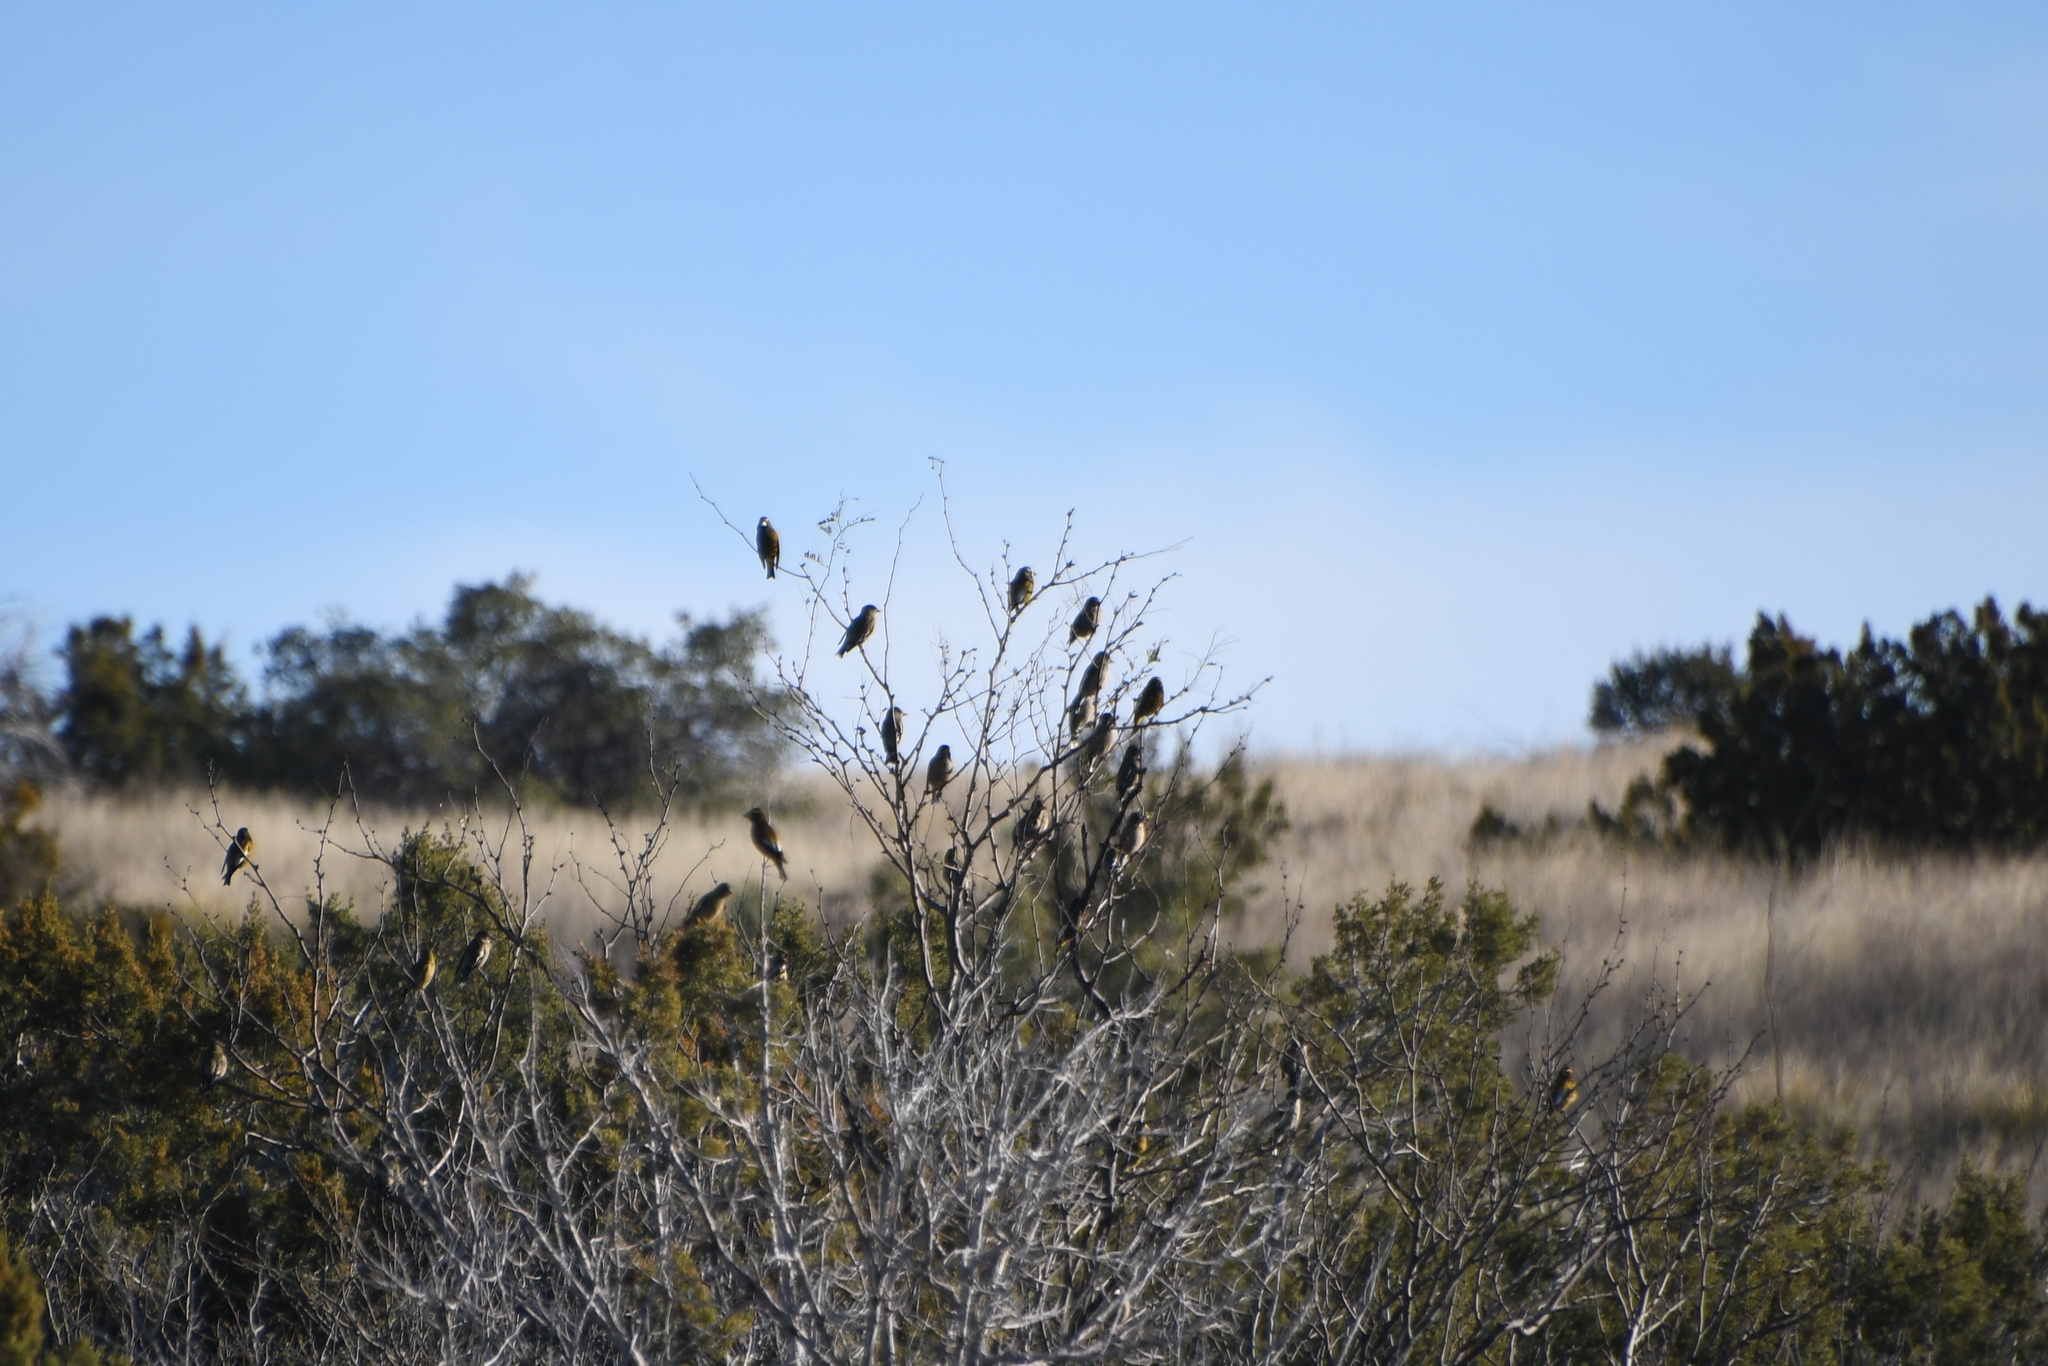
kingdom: Animalia
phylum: Chordata
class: Aves
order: Passeriformes
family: Fringillidae
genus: Hesperiphona
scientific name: Hesperiphona vespertina
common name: Evening grosbeak
